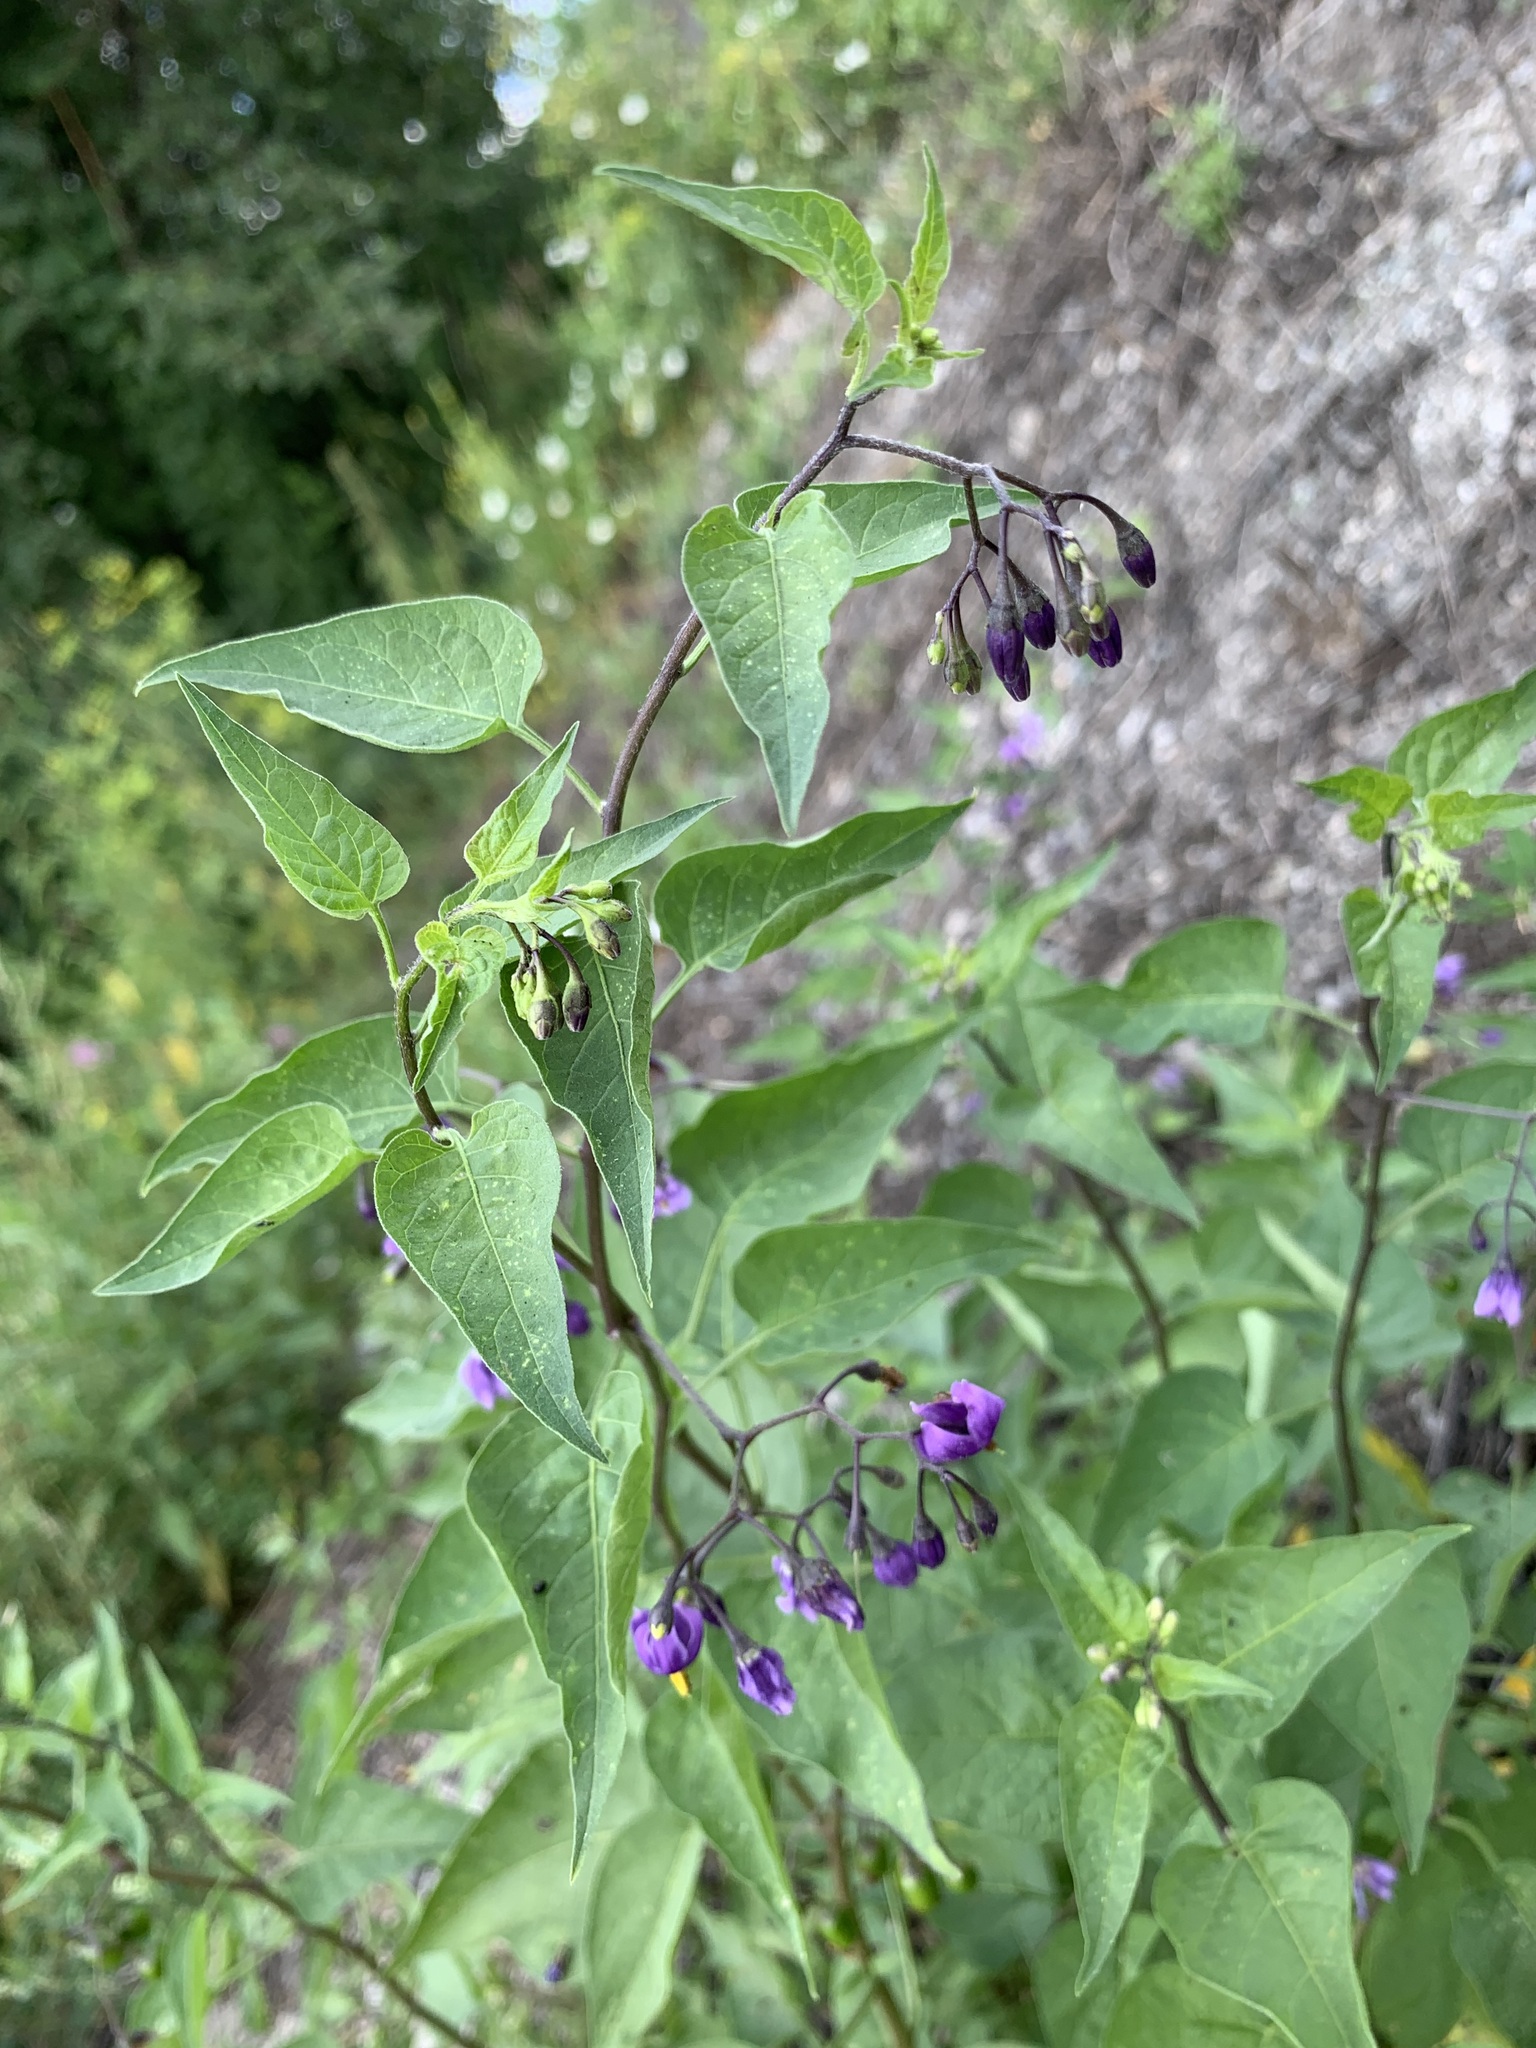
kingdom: Plantae
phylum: Tracheophyta
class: Magnoliopsida
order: Solanales
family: Solanaceae
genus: Solanum
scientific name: Solanum dulcamara
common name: Climbing nightshade
